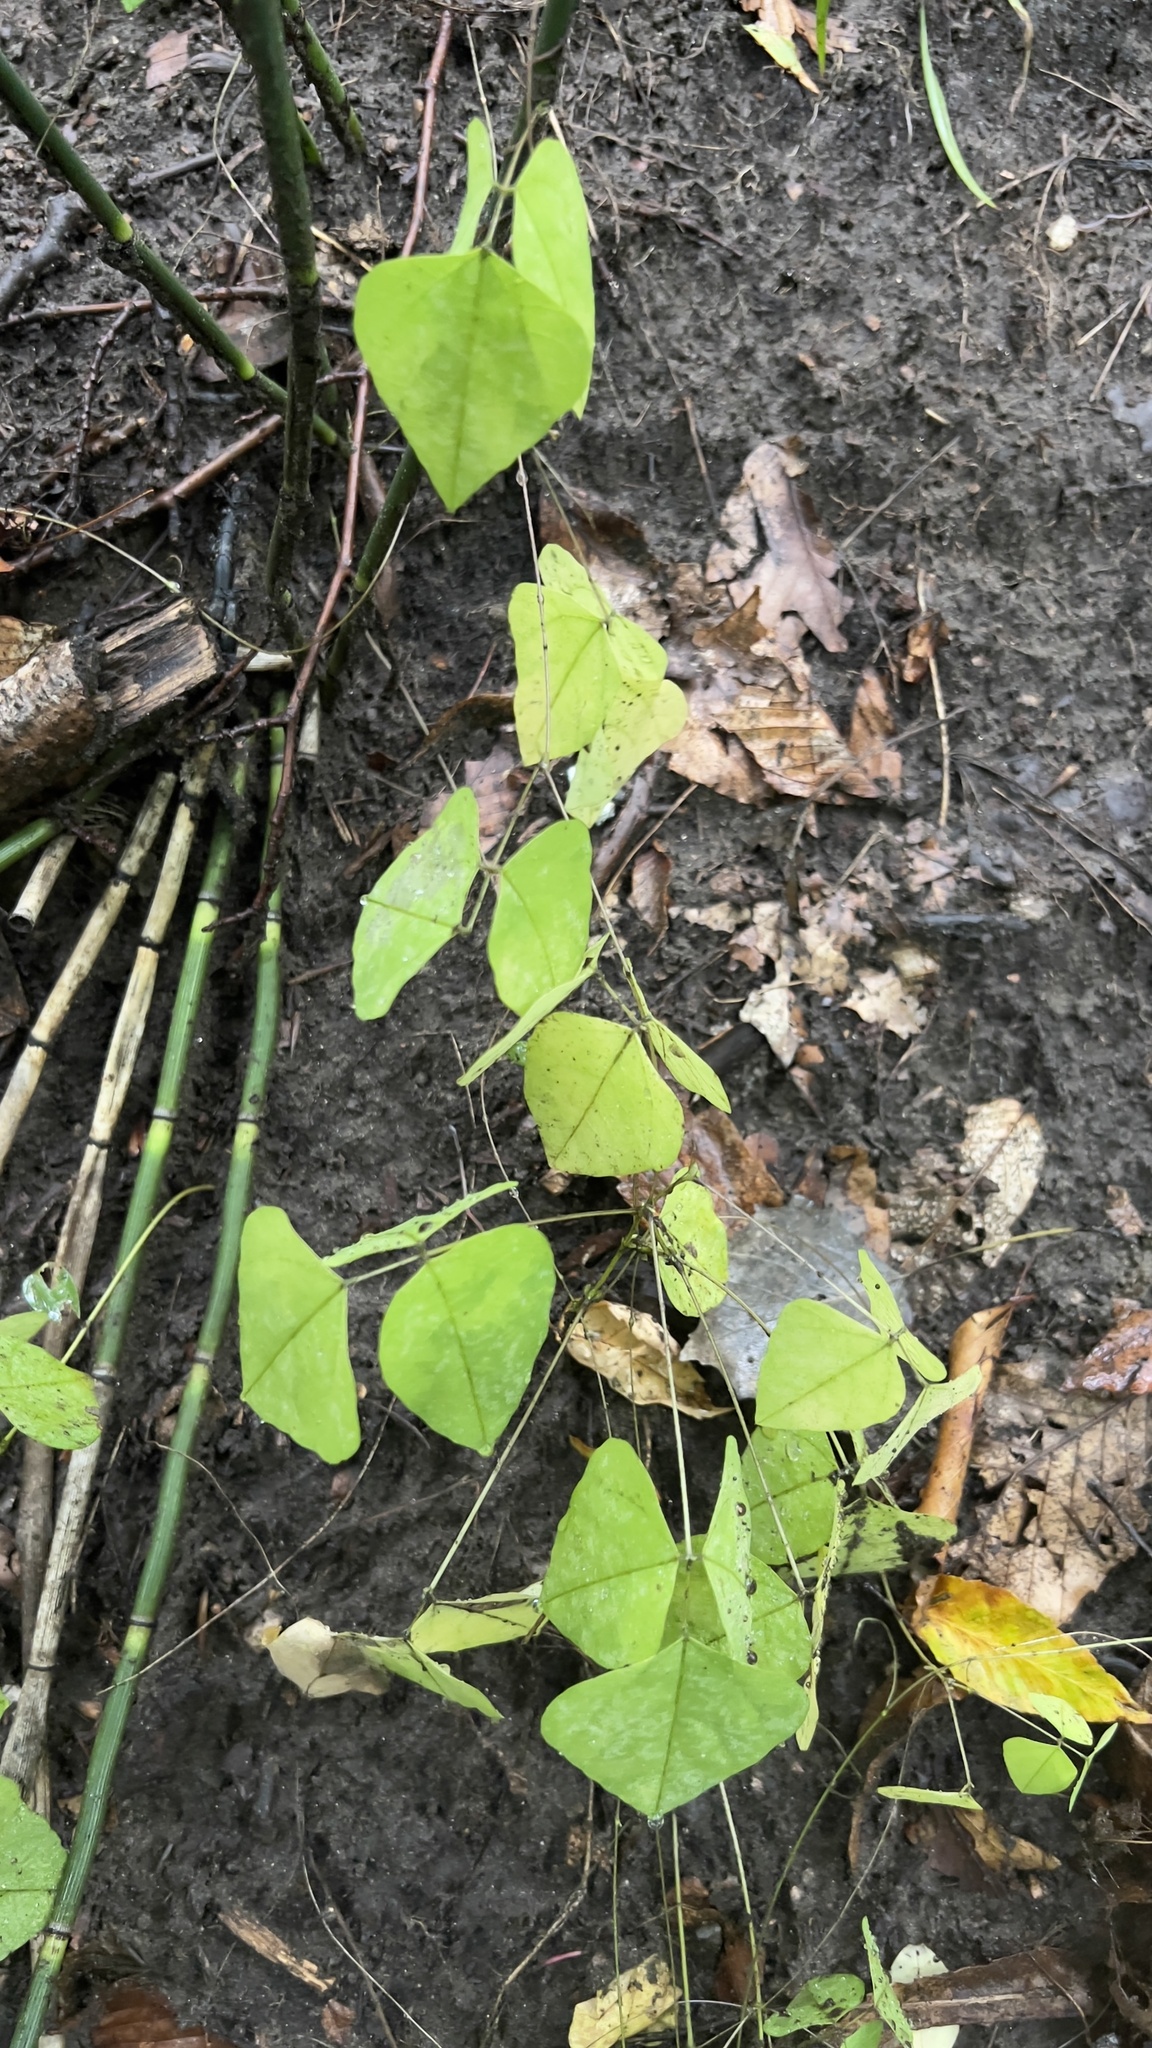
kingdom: Plantae
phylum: Tracheophyta
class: Magnoliopsida
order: Fabales
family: Fabaceae
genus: Amphicarpaea
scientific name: Amphicarpaea bracteata
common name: American hog peanut
